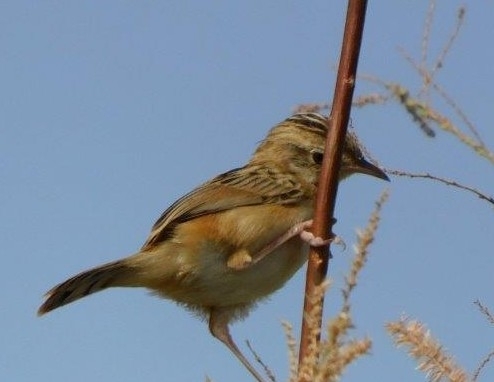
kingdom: Animalia
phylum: Chordata
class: Aves
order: Passeriformes
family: Cisticolidae
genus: Cisticola
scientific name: Cisticola juncidis
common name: Zitting cisticola
